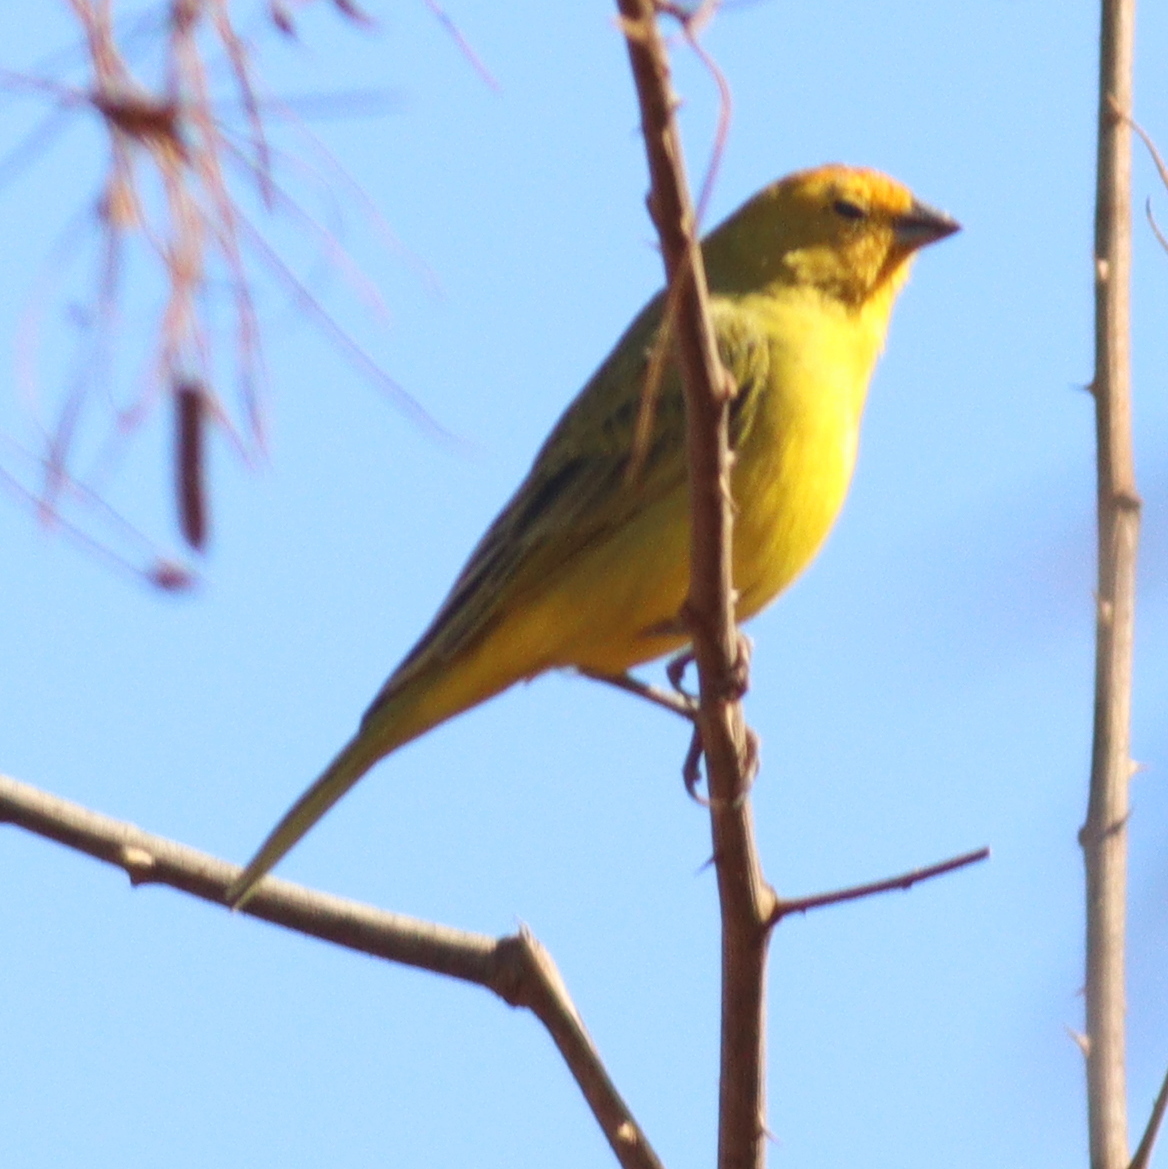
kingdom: Animalia
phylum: Chordata
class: Aves
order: Passeriformes
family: Thraupidae
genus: Sicalis
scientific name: Sicalis flaveola
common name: Saffron finch
